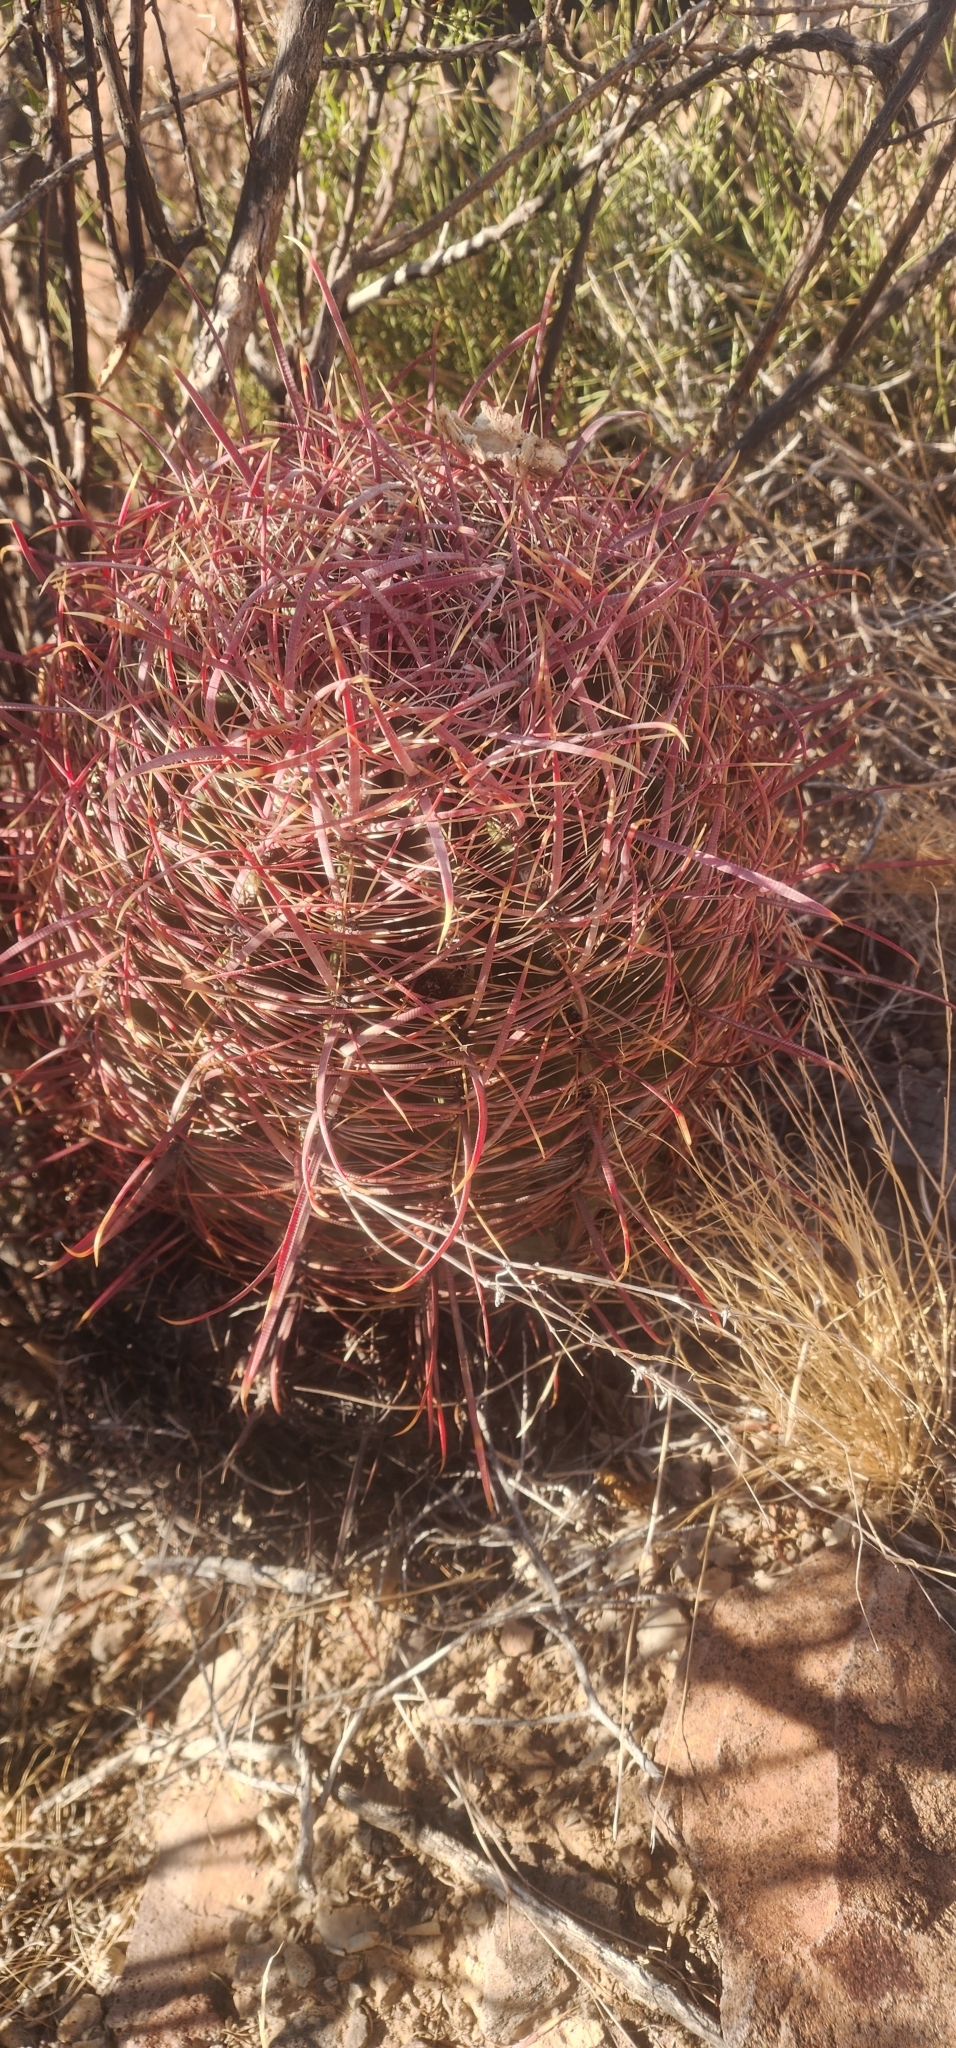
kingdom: Plantae
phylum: Tracheophyta
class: Magnoliopsida
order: Caryophyllales
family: Cactaceae
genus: Ferocactus
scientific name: Ferocactus cylindraceus
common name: California barrel cactus
